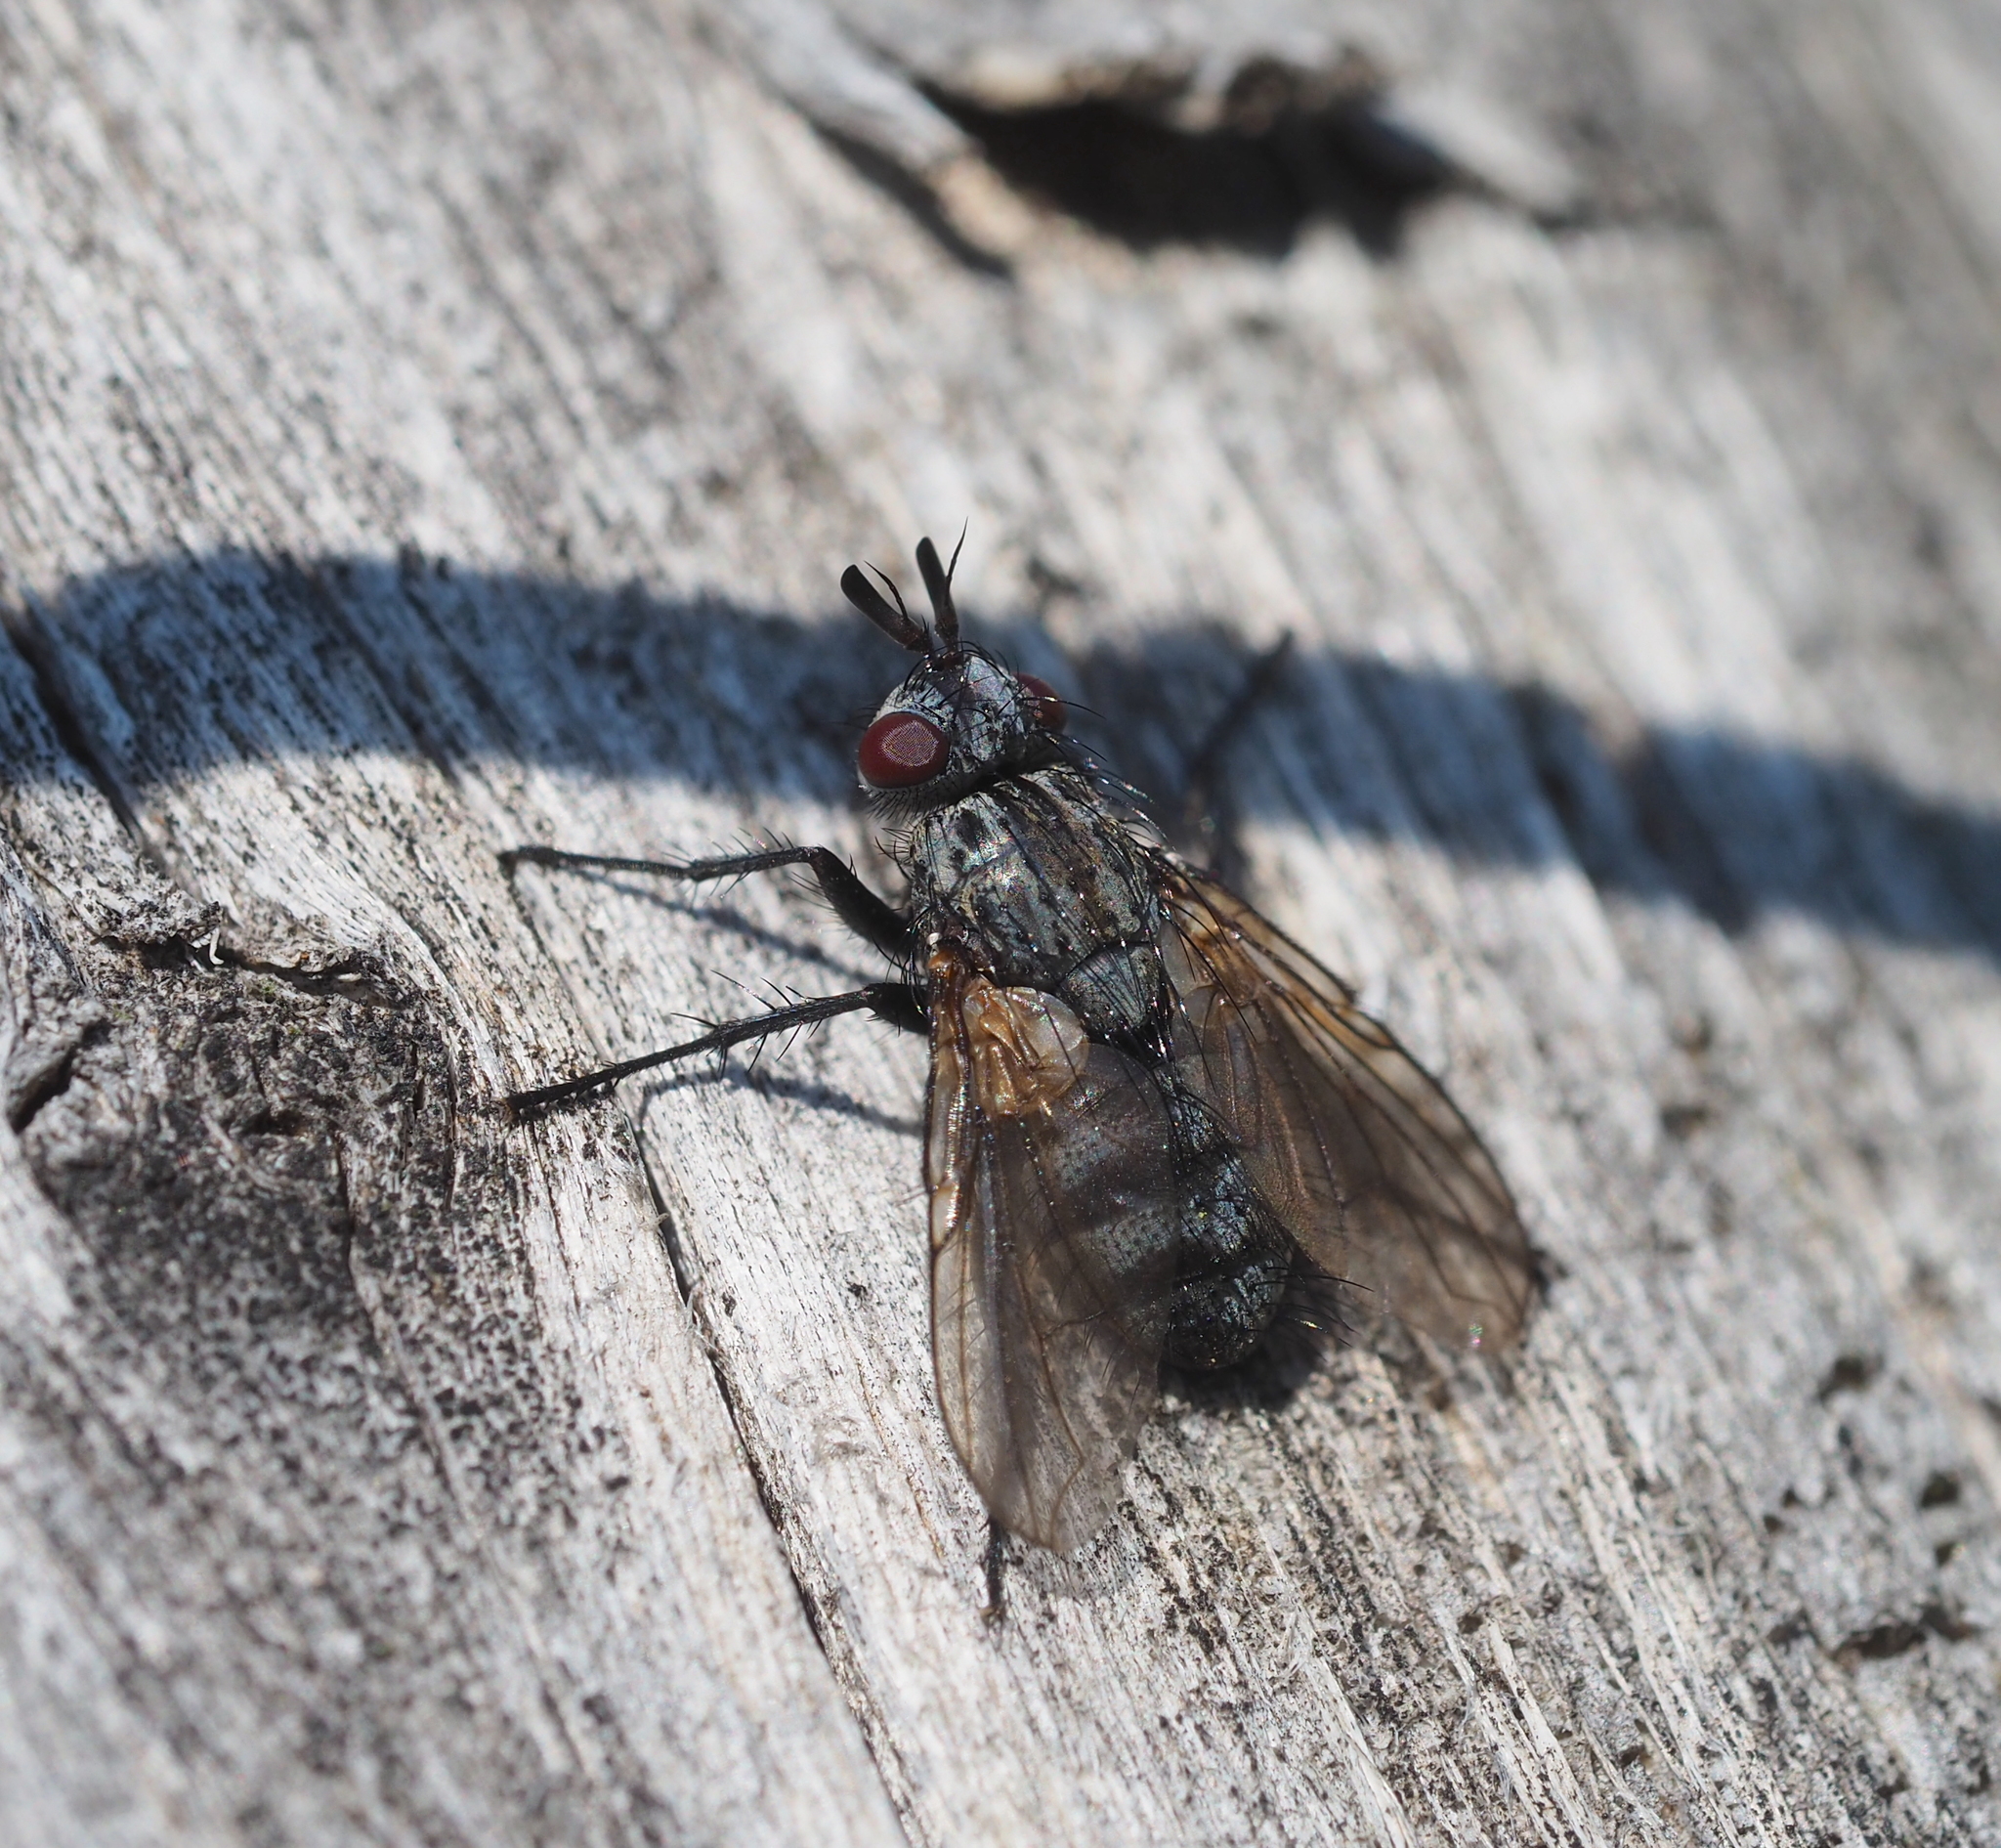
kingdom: Animalia
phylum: Arthropoda
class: Insecta
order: Diptera
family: Tachinidae
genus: Triarthria
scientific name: Triarthria setipennis
